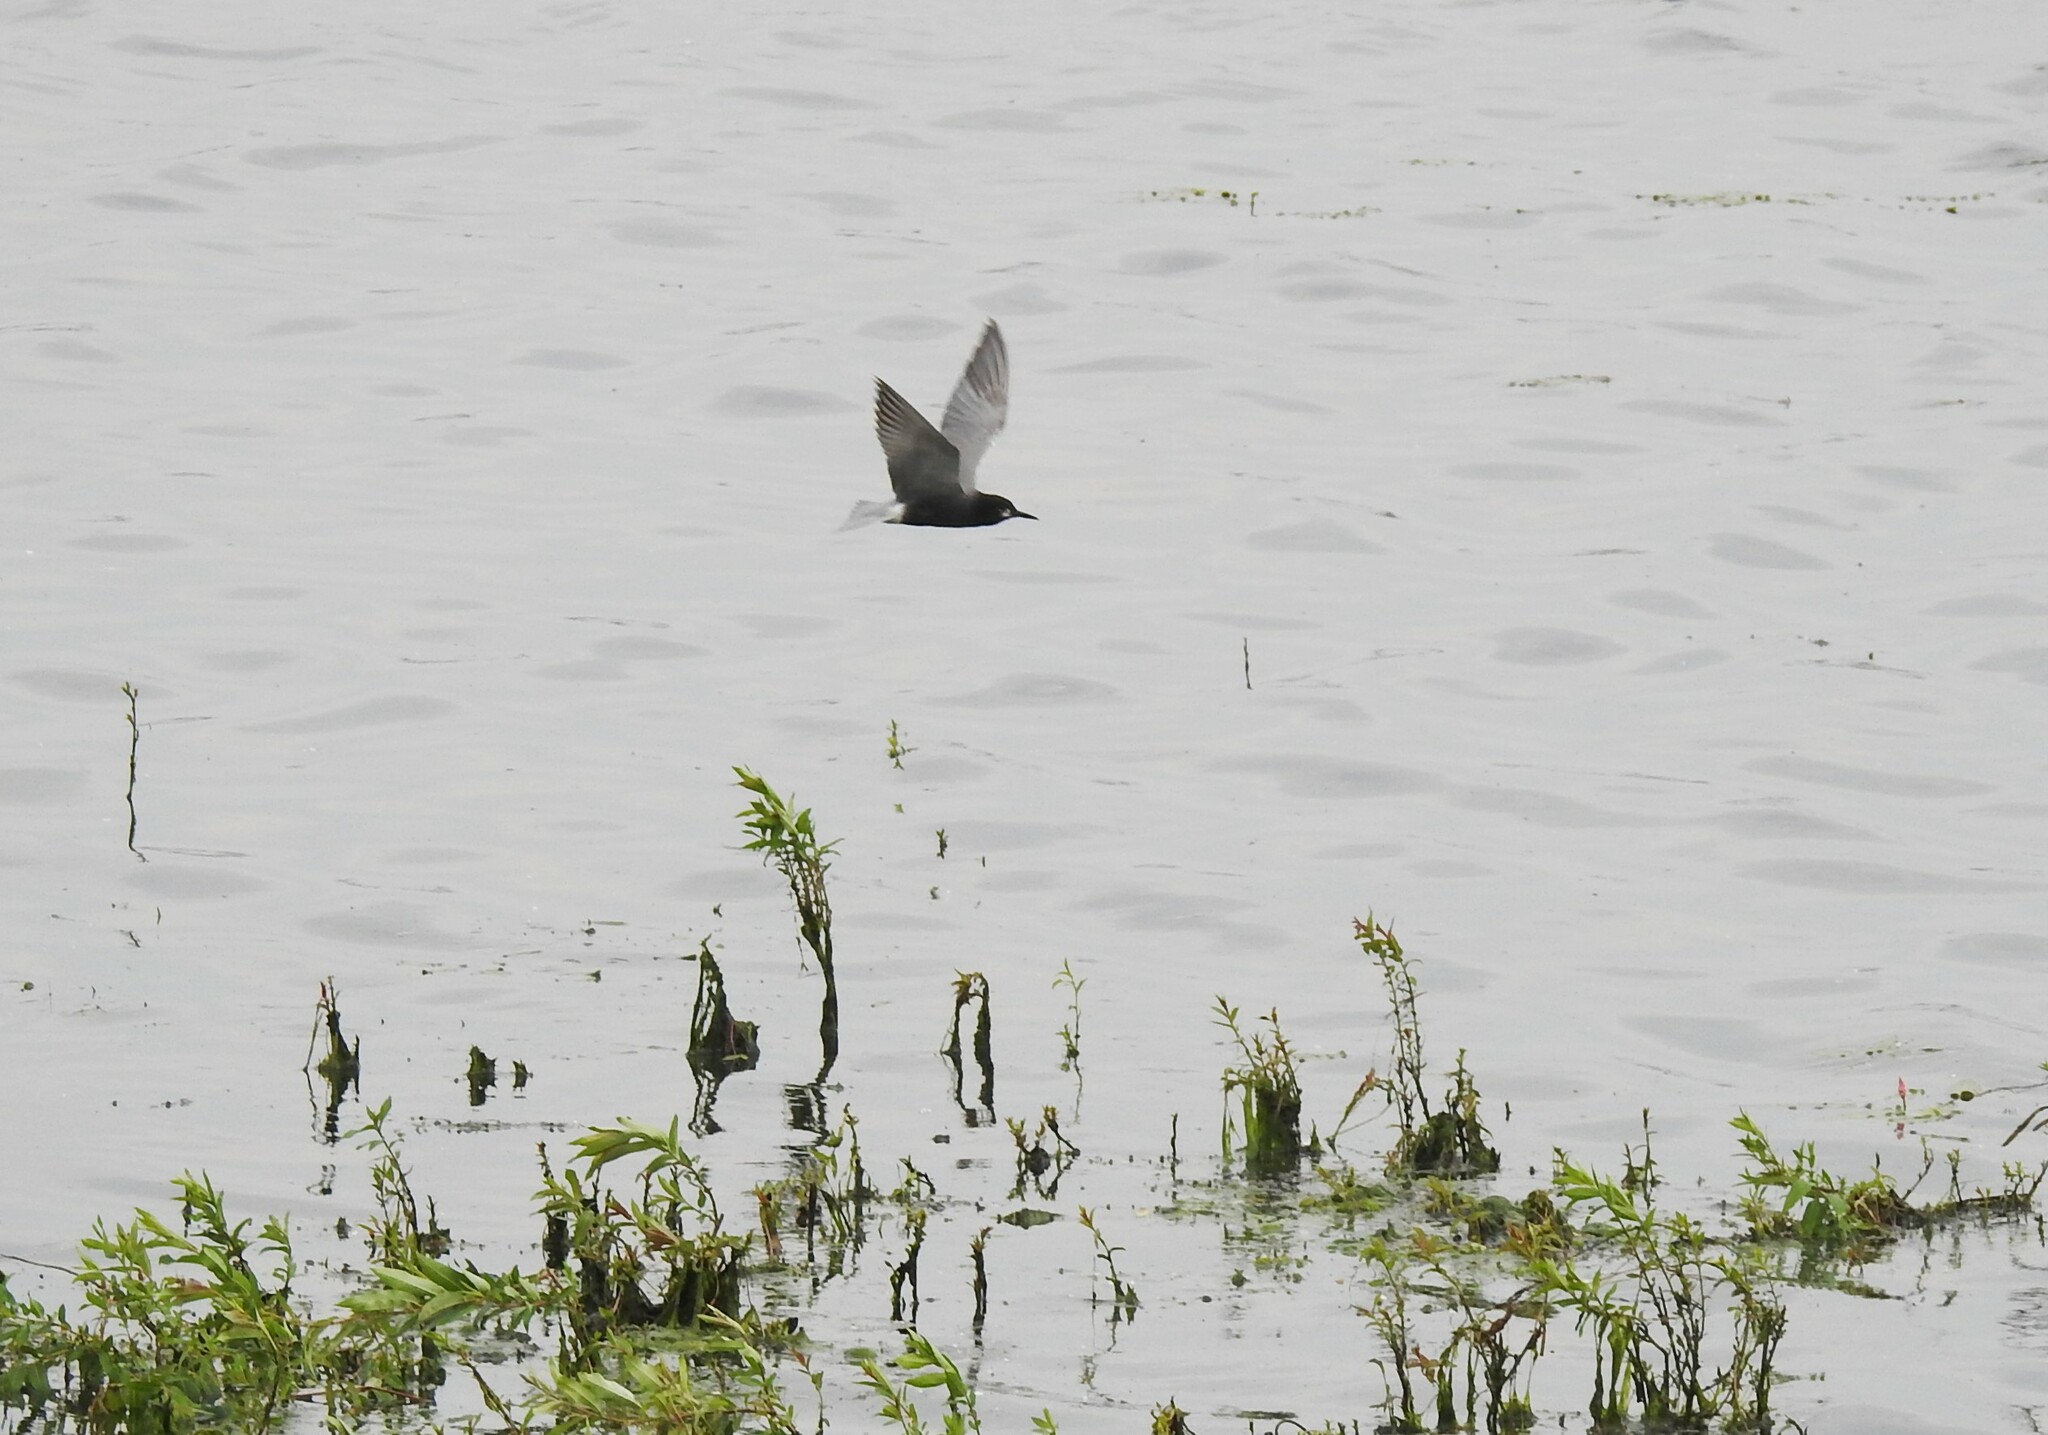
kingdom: Animalia
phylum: Chordata
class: Aves
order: Charadriiformes
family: Laridae
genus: Chlidonias
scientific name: Chlidonias niger
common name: Black tern
